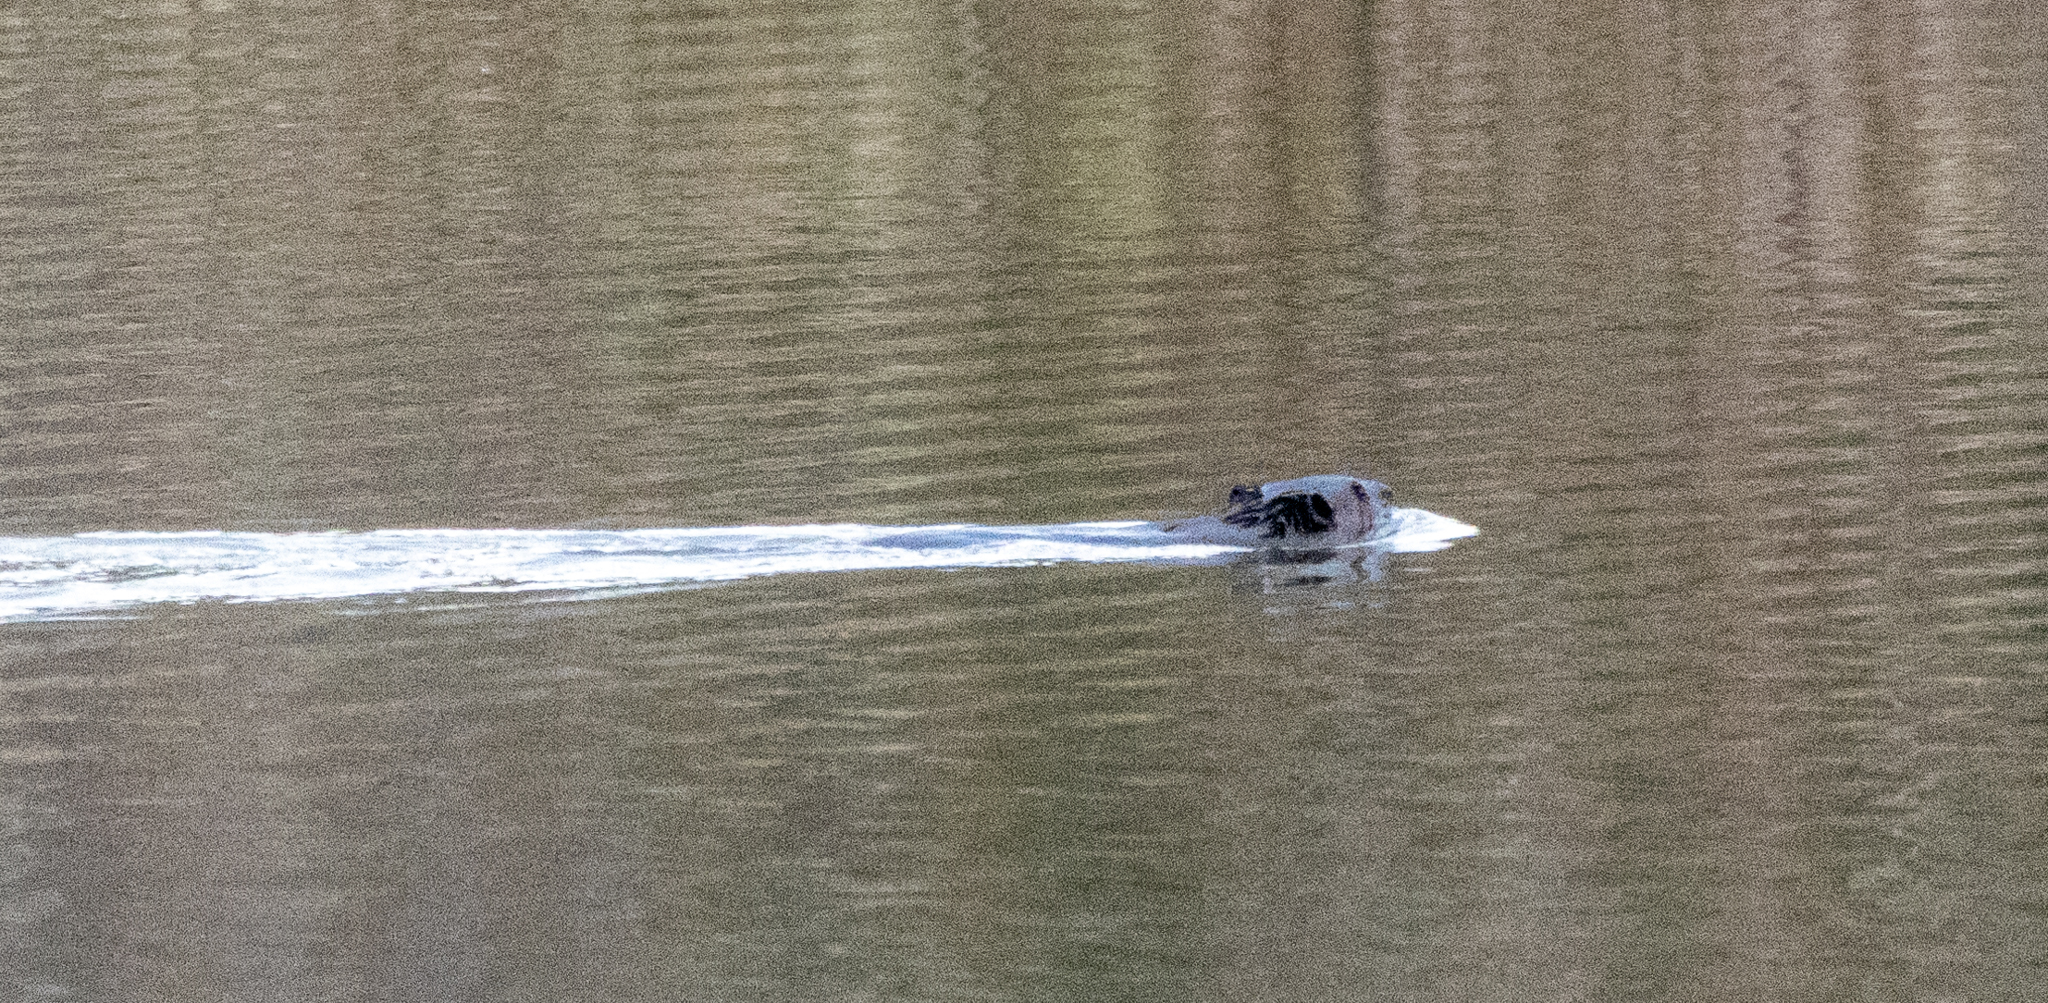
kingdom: Animalia
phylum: Chordata
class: Mammalia
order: Rodentia
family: Castoridae
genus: Castor
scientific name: Castor canadensis
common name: American beaver
